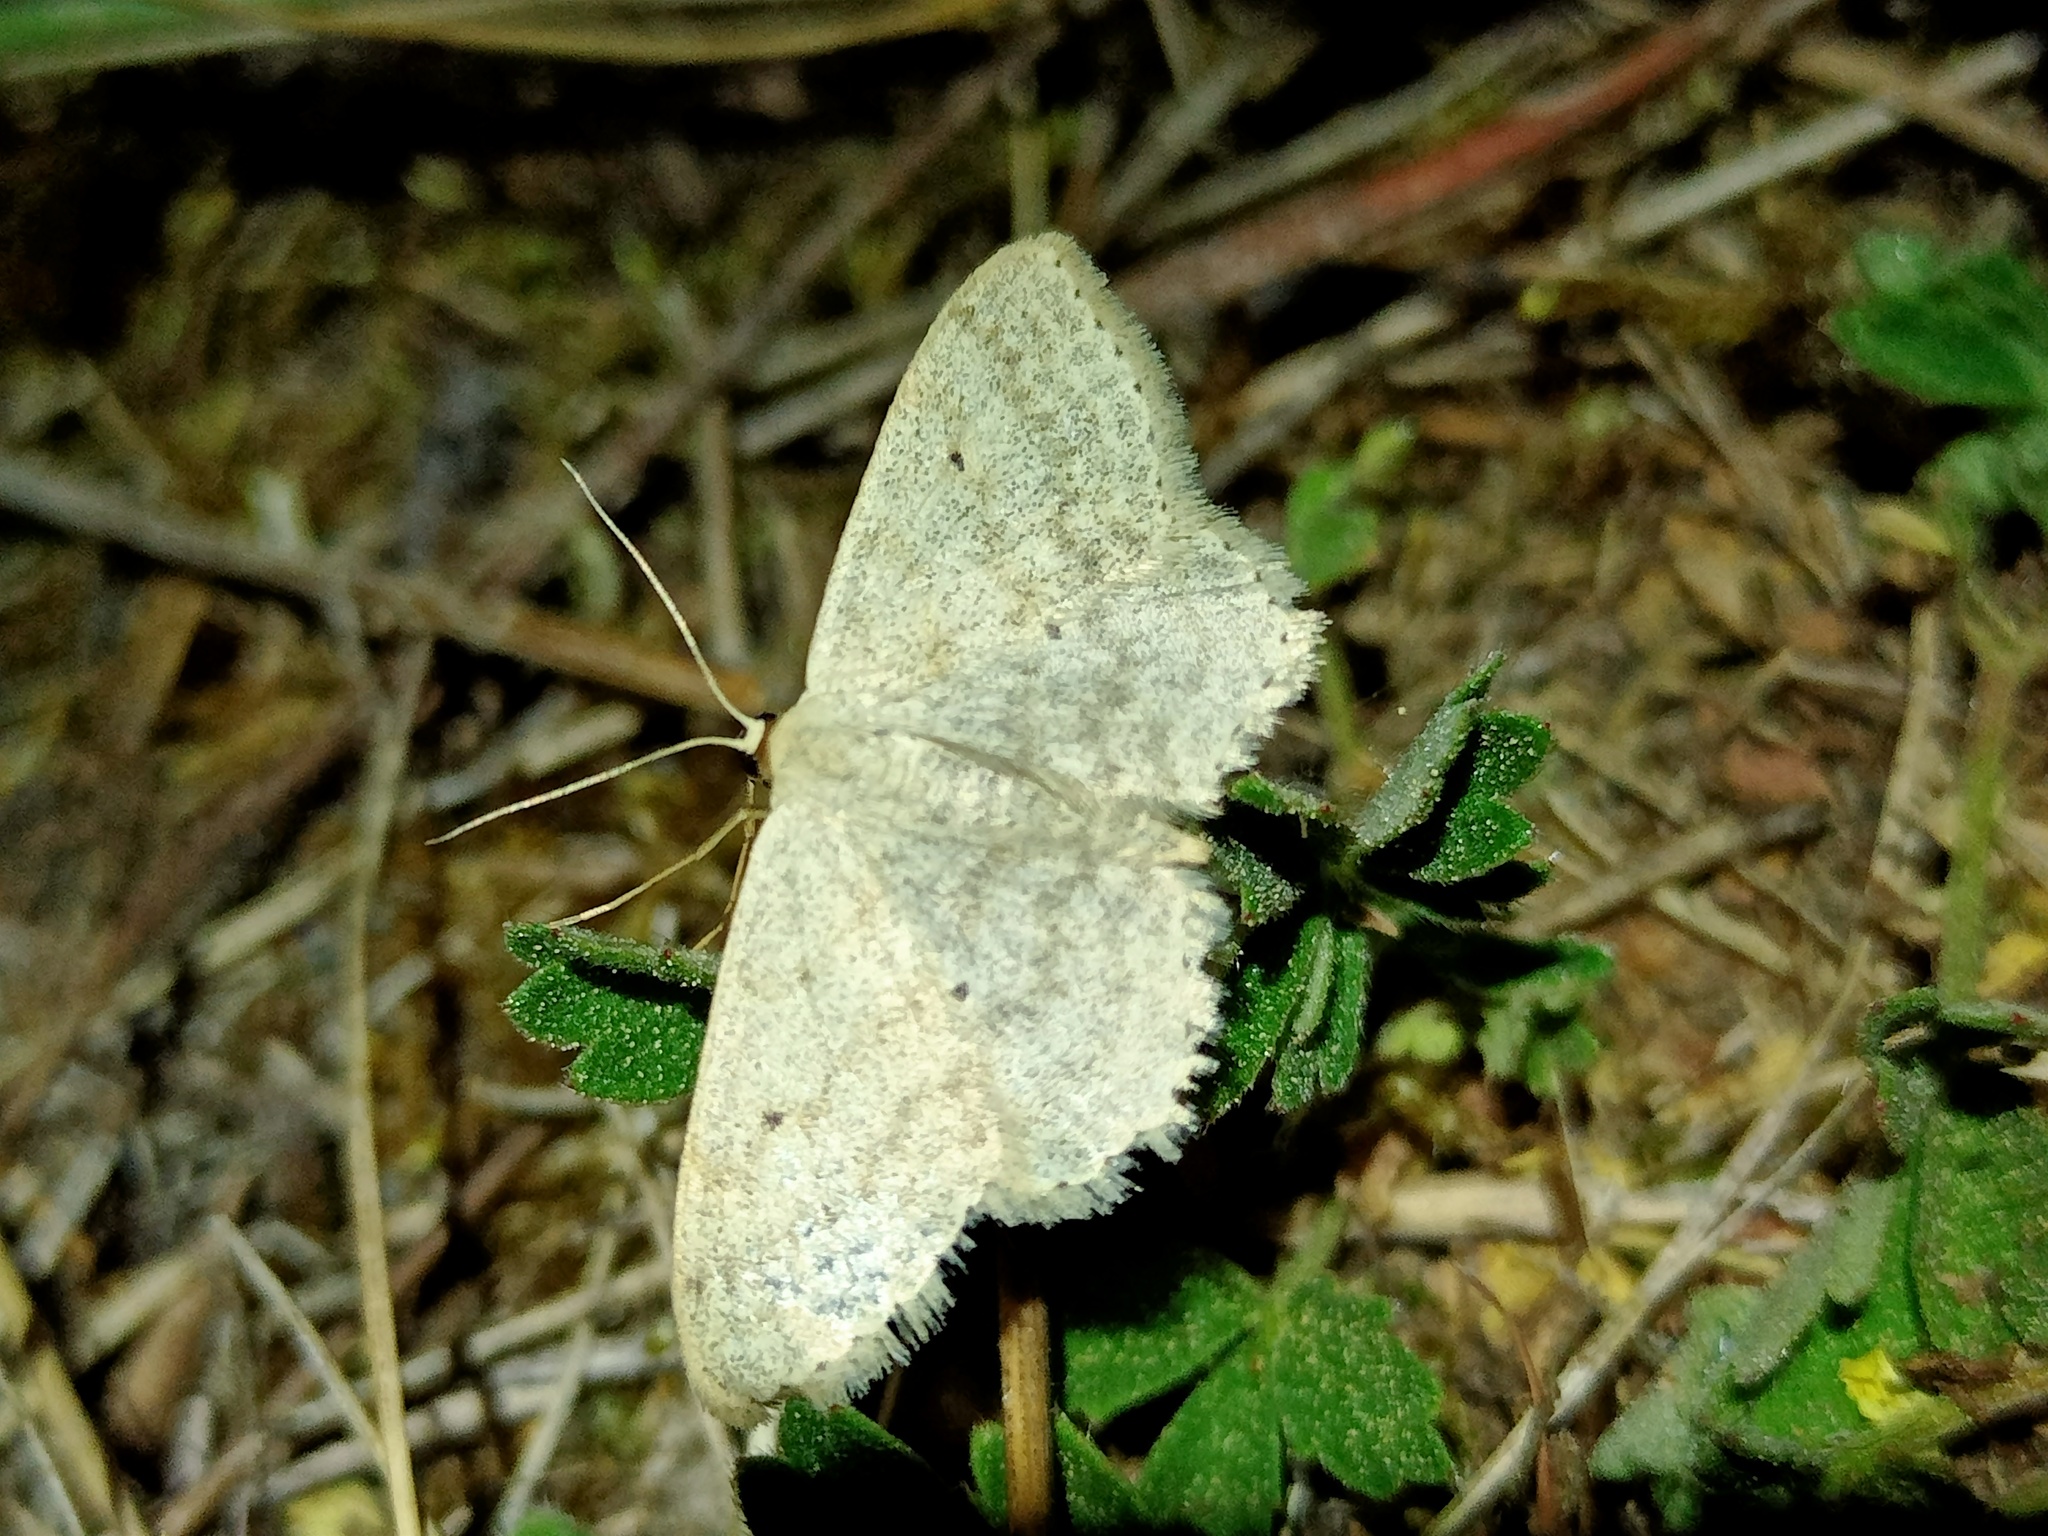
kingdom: Animalia
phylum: Arthropoda
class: Insecta
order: Lepidoptera
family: Geometridae
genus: Scopula
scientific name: Scopula incanata
